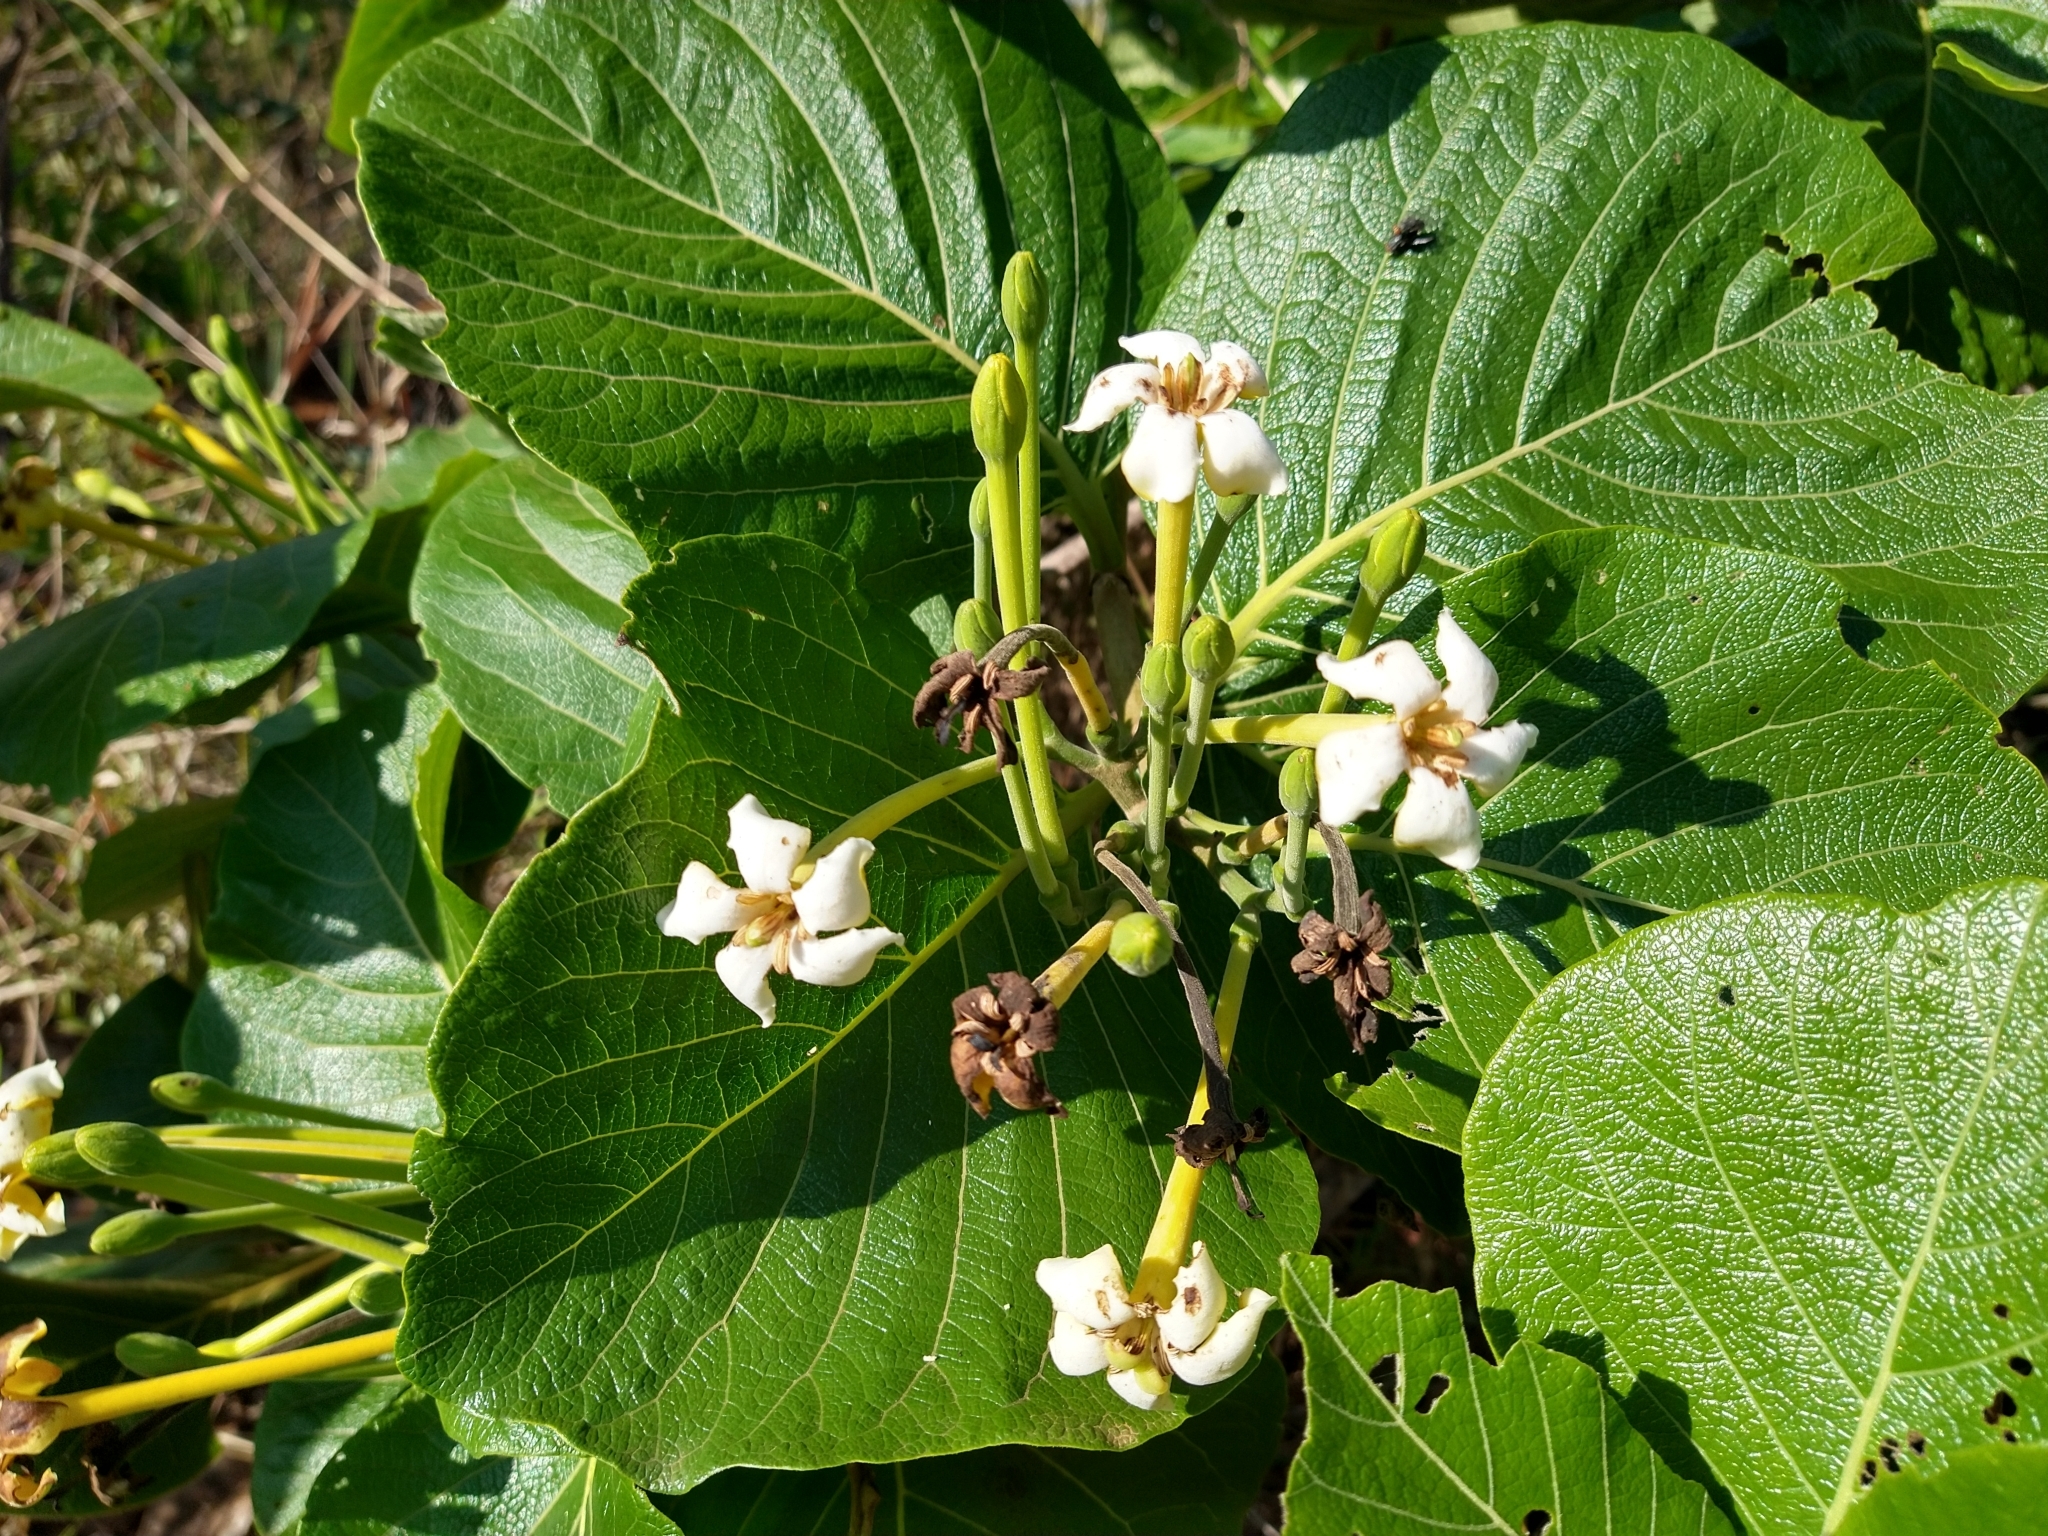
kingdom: Plantae
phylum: Tracheophyta
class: Magnoliopsida
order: Gentianales
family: Rubiaceae
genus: Tocoyena
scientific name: Tocoyena formosa
